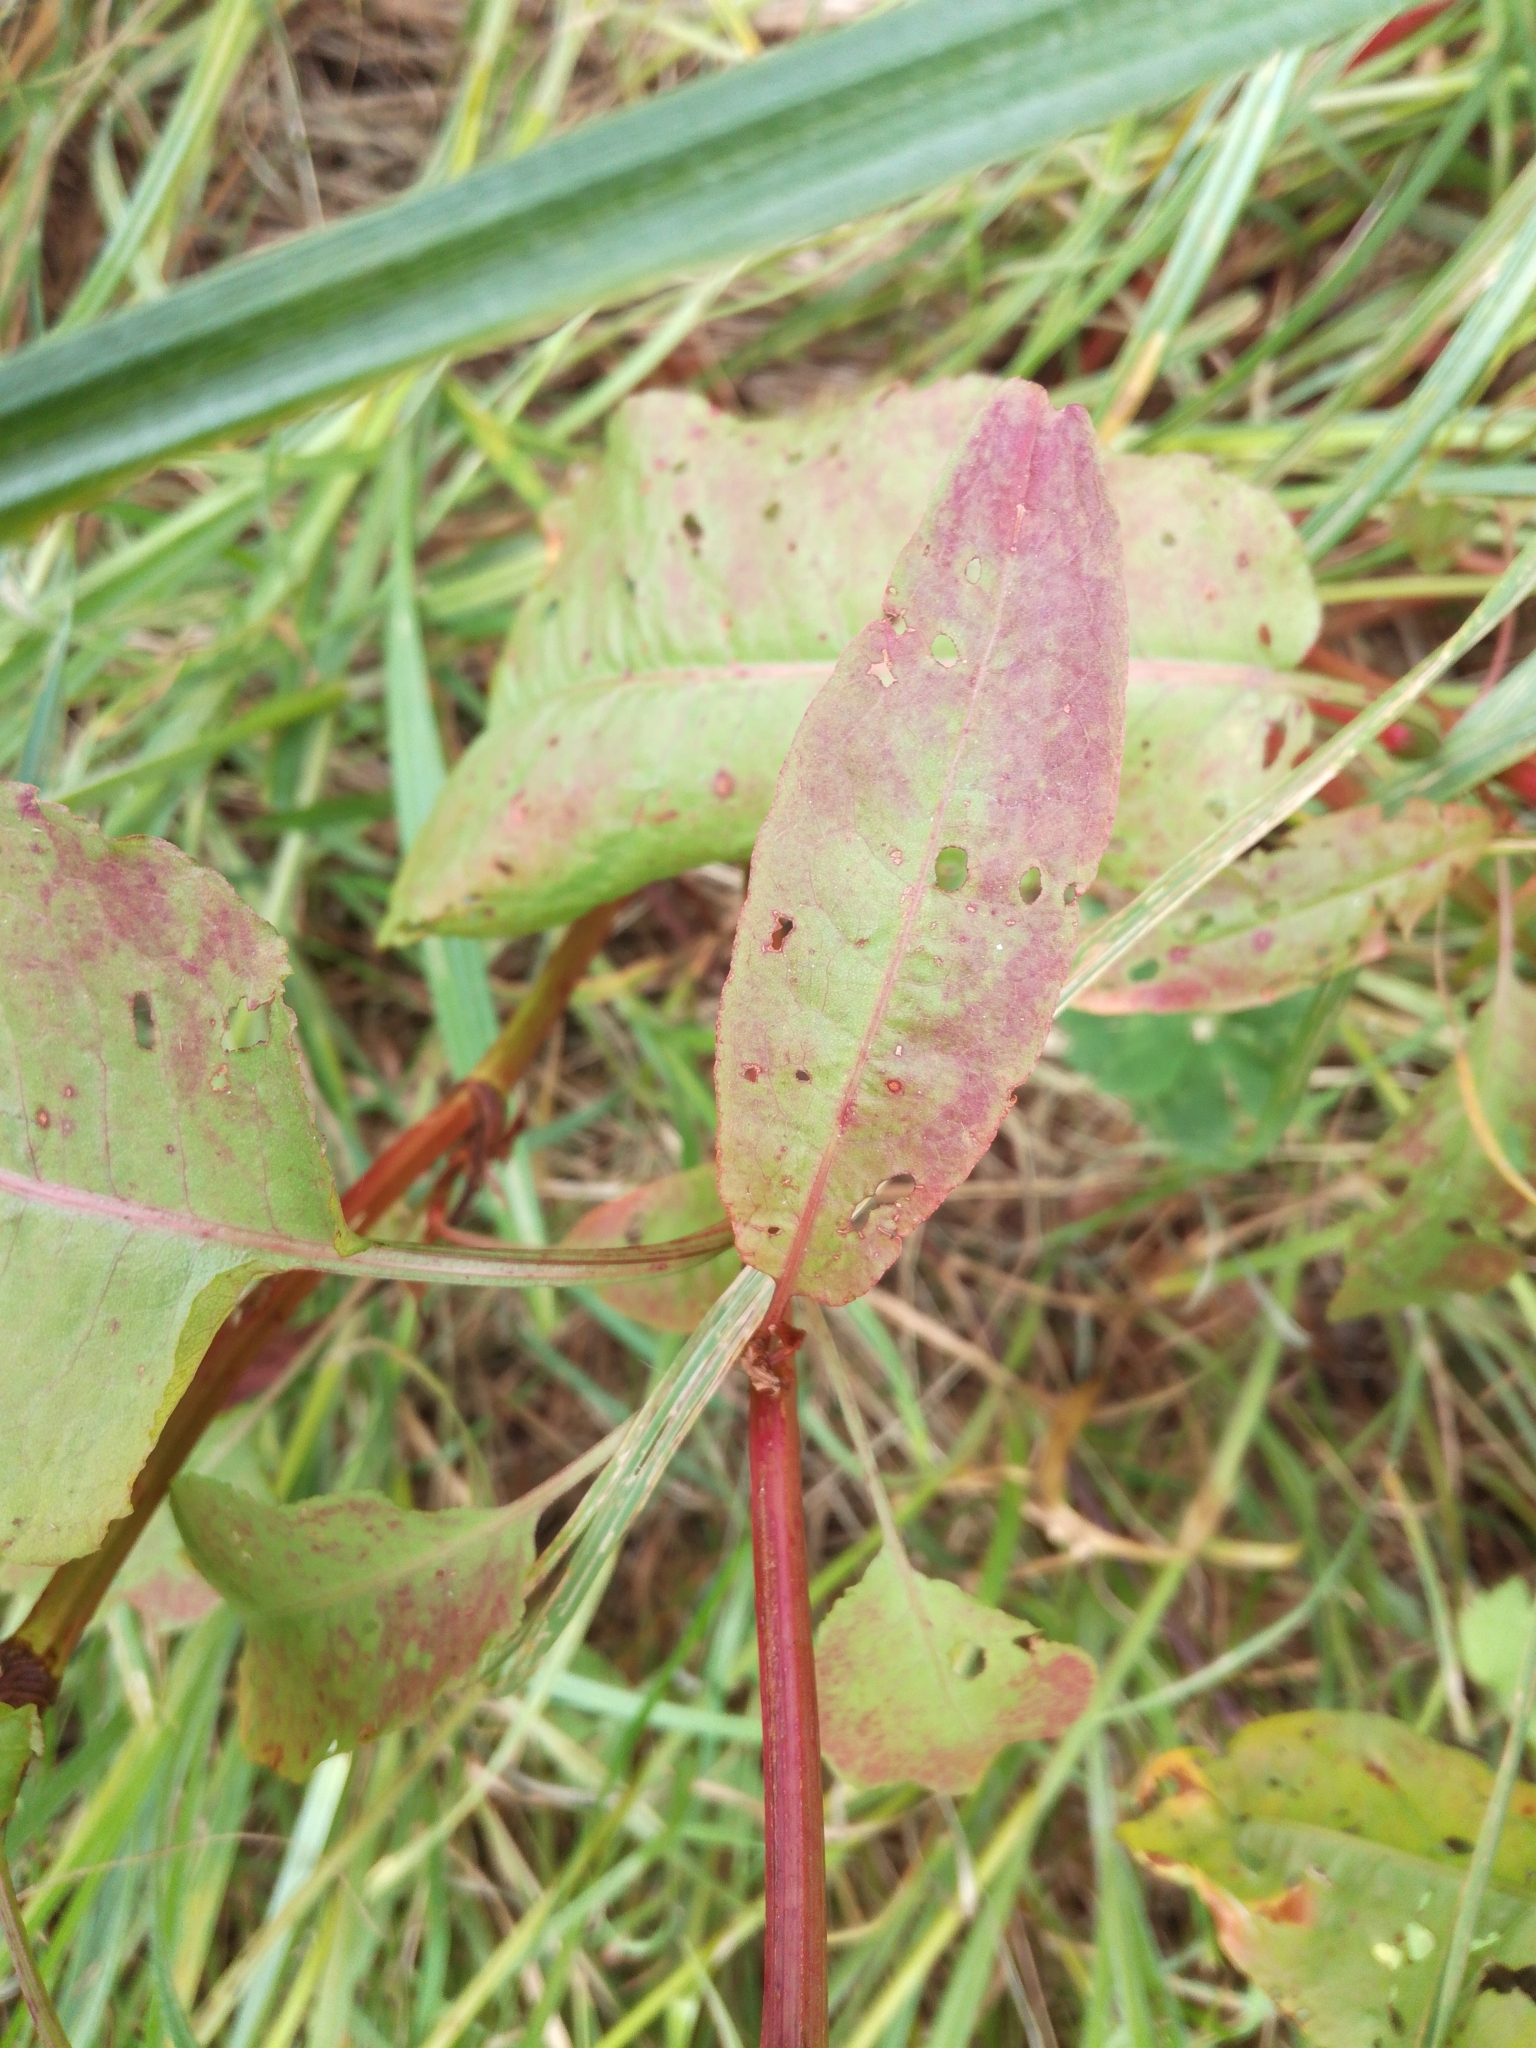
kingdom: Plantae
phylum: Tracheophyta
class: Magnoliopsida
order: Caryophyllales
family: Polygonaceae
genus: Rumex
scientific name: Rumex conglomeratus
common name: Clustered dock
